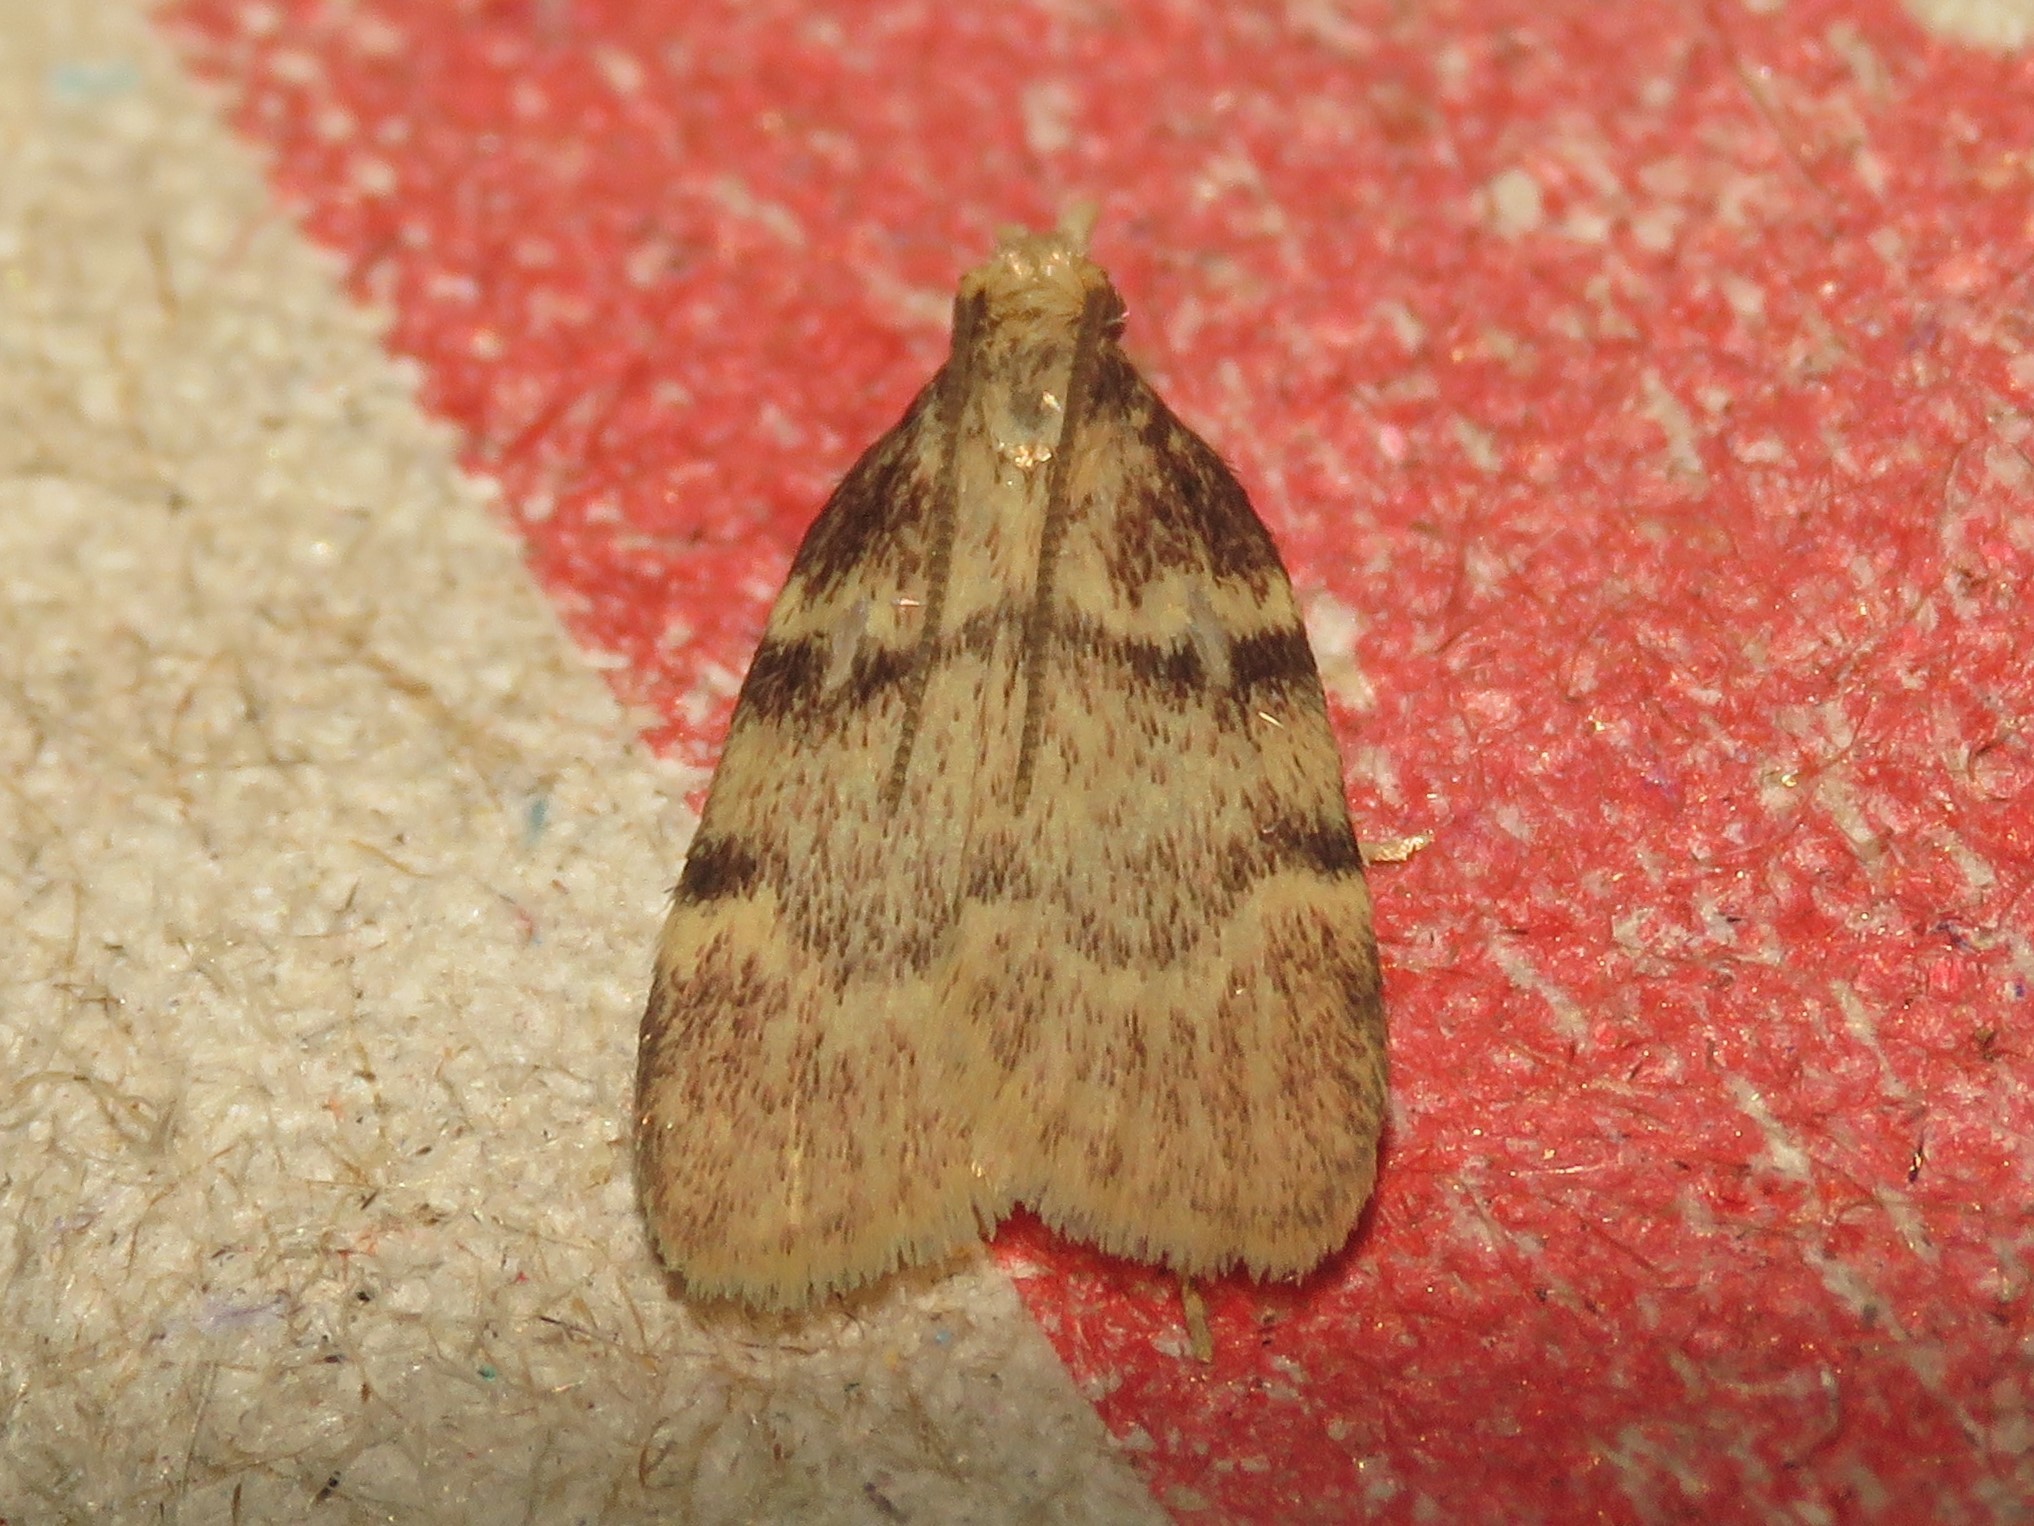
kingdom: Animalia
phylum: Arthropoda
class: Insecta
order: Lepidoptera
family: Pyralidae
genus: Acallis
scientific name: Acallis alticolalis
